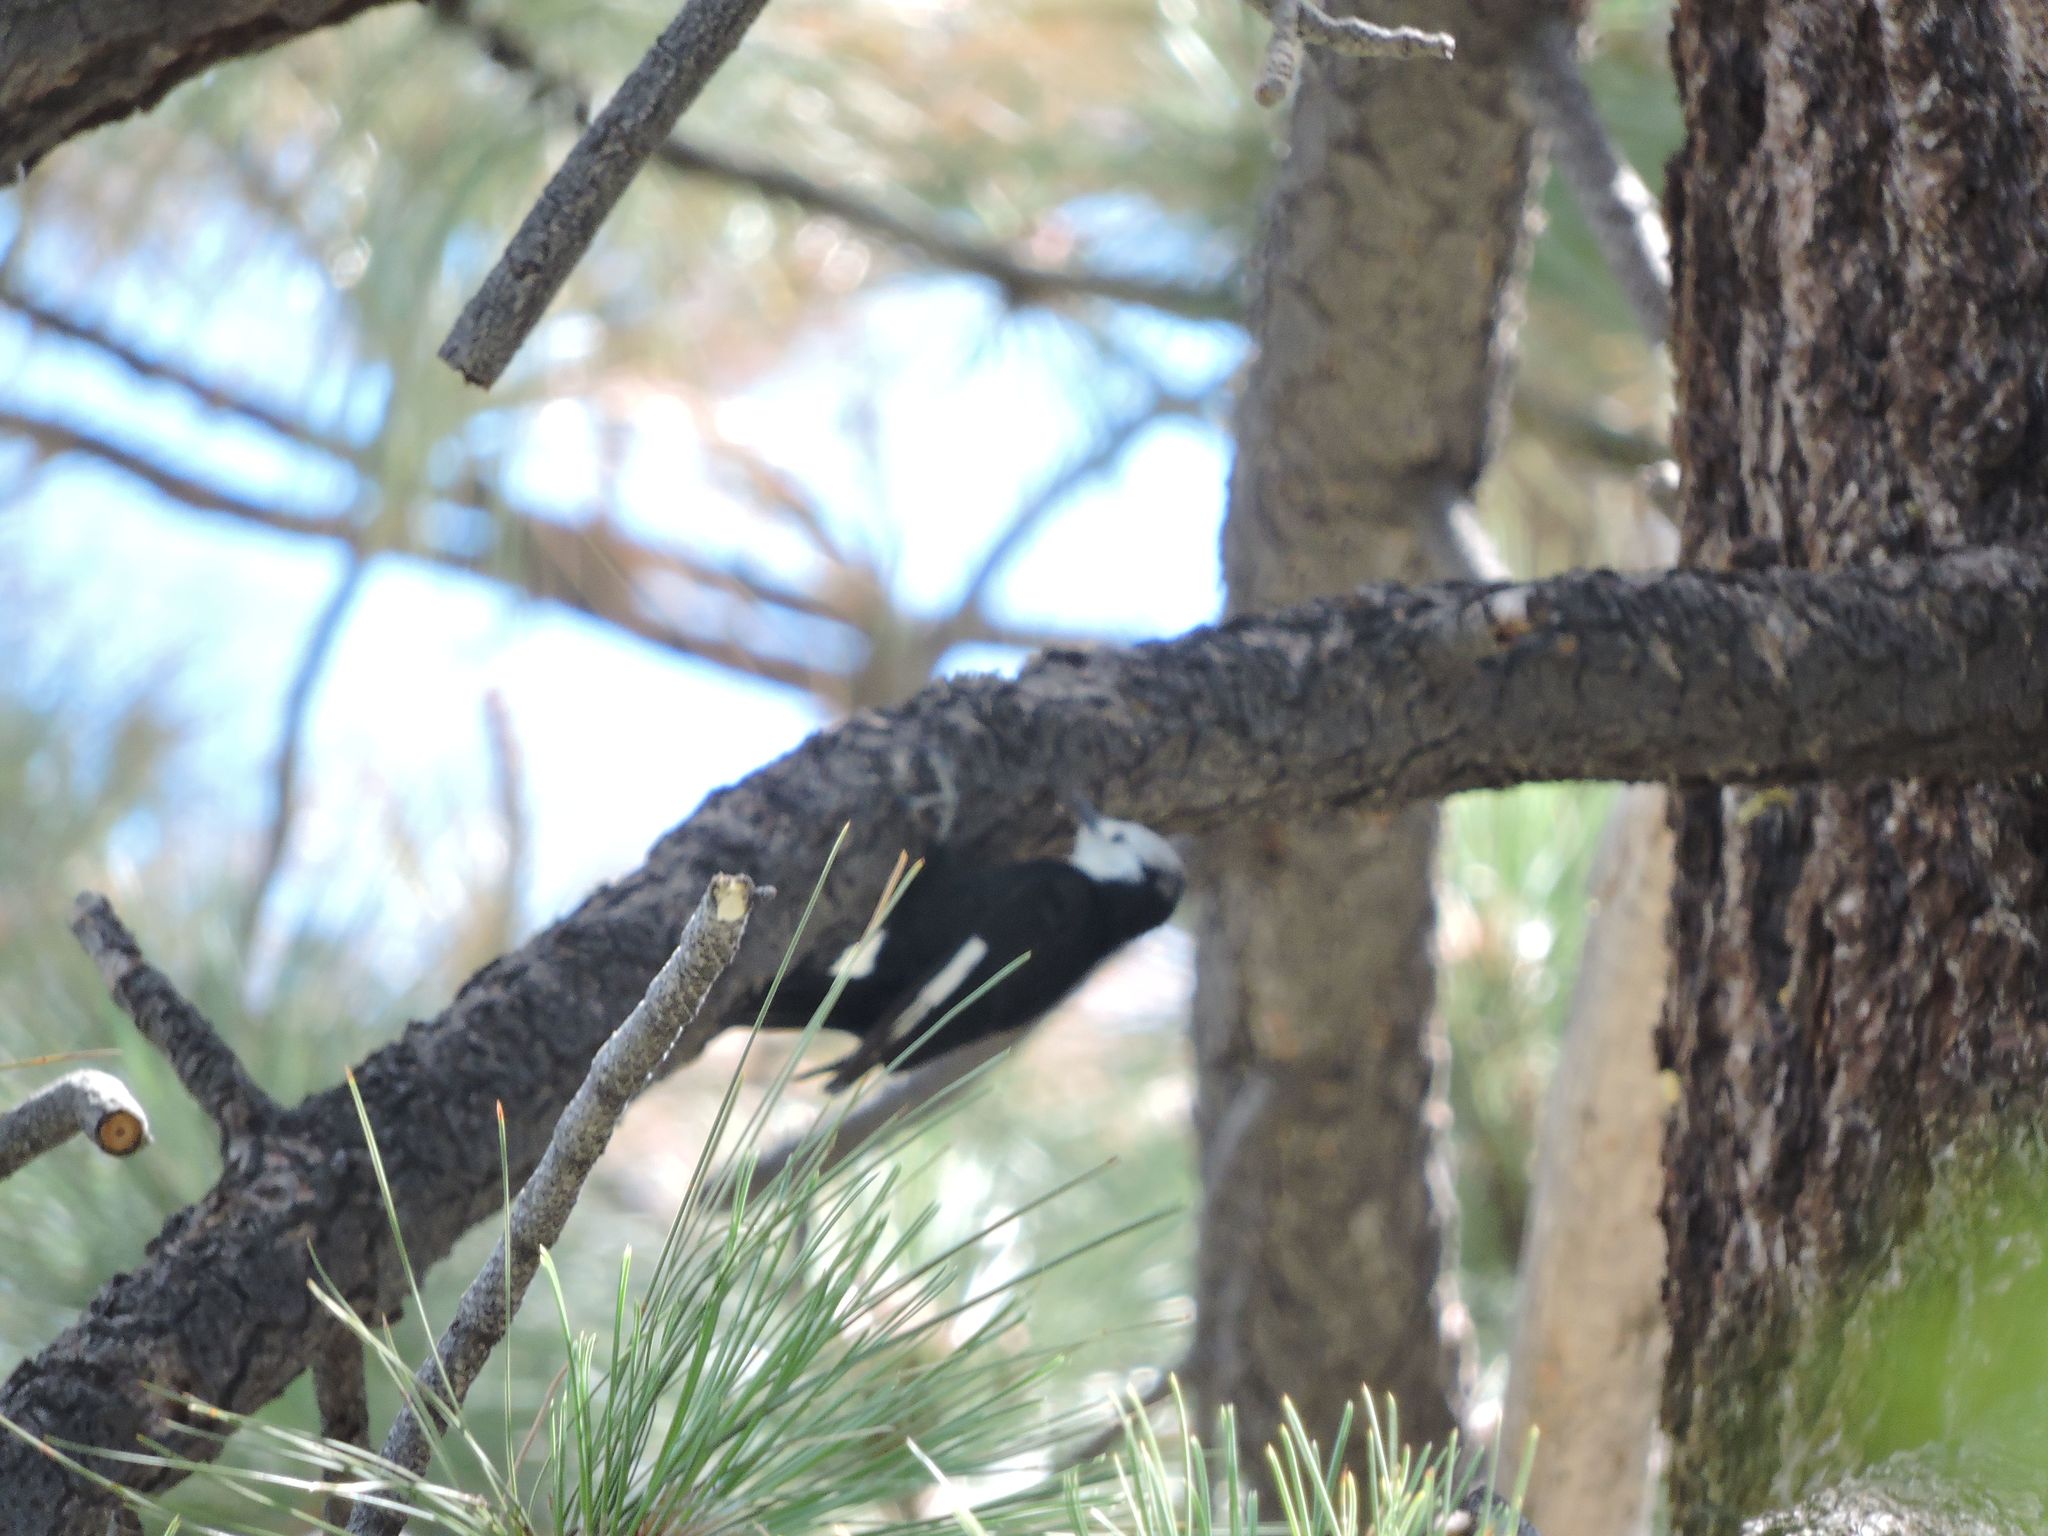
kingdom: Animalia
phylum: Chordata
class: Aves
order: Piciformes
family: Picidae
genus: Leuconotopicus
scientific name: Leuconotopicus albolarvatus
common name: White-headed woodpecker
